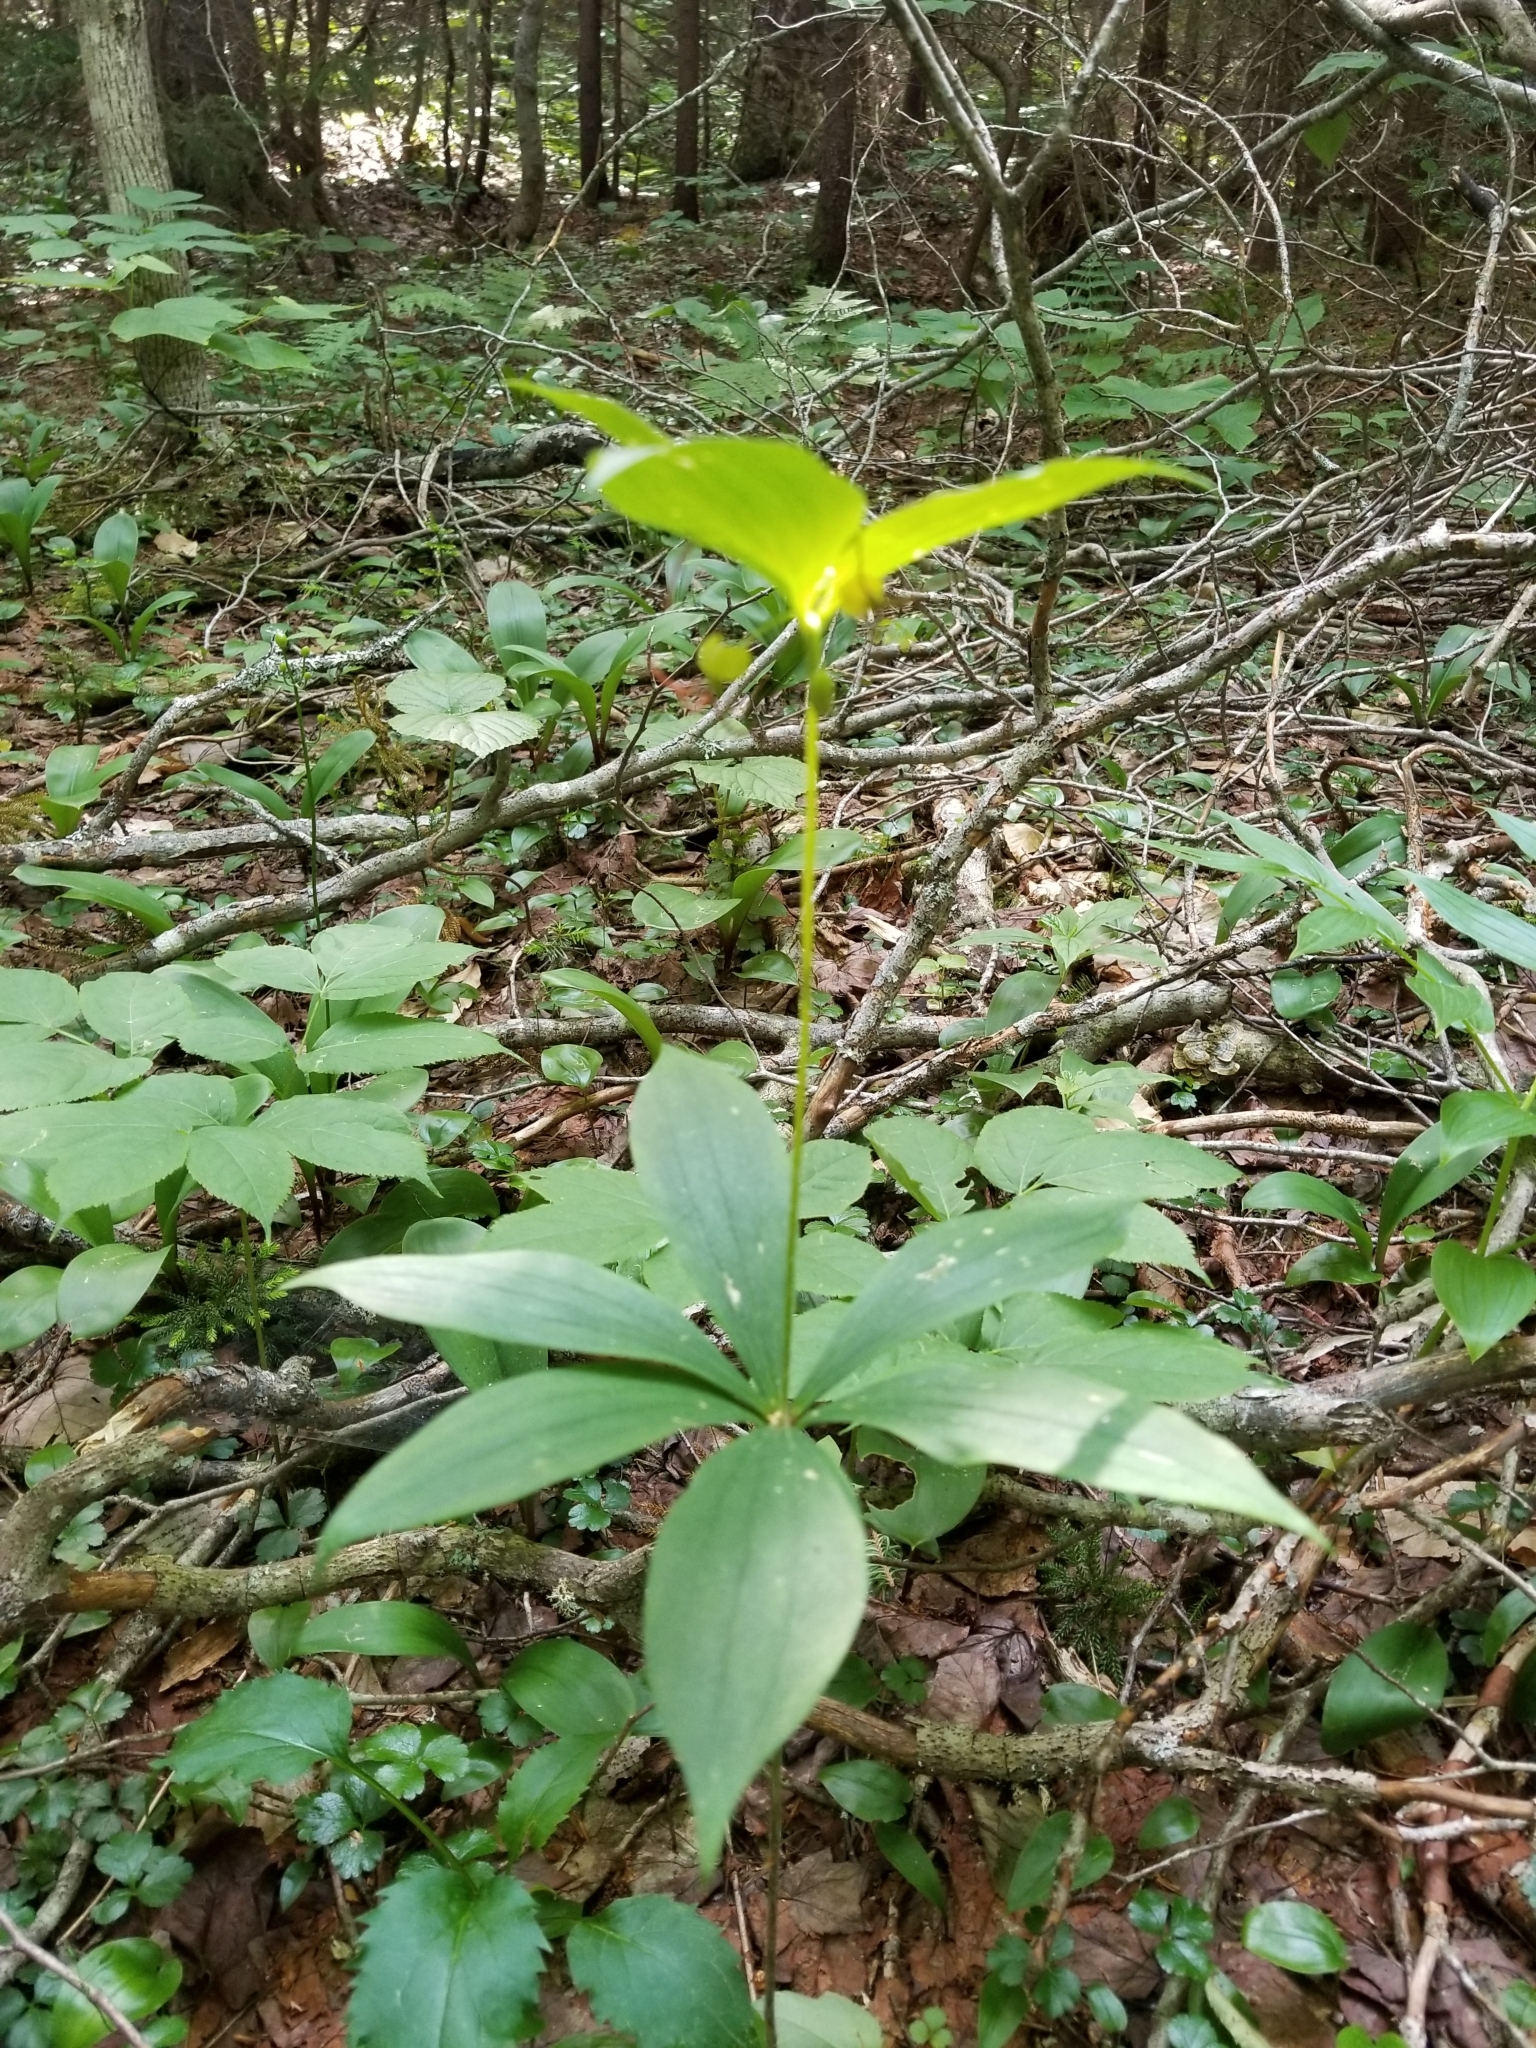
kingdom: Plantae
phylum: Tracheophyta
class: Liliopsida
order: Liliales
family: Liliaceae
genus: Medeola
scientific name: Medeola virginiana
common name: Indian cucumber-root
